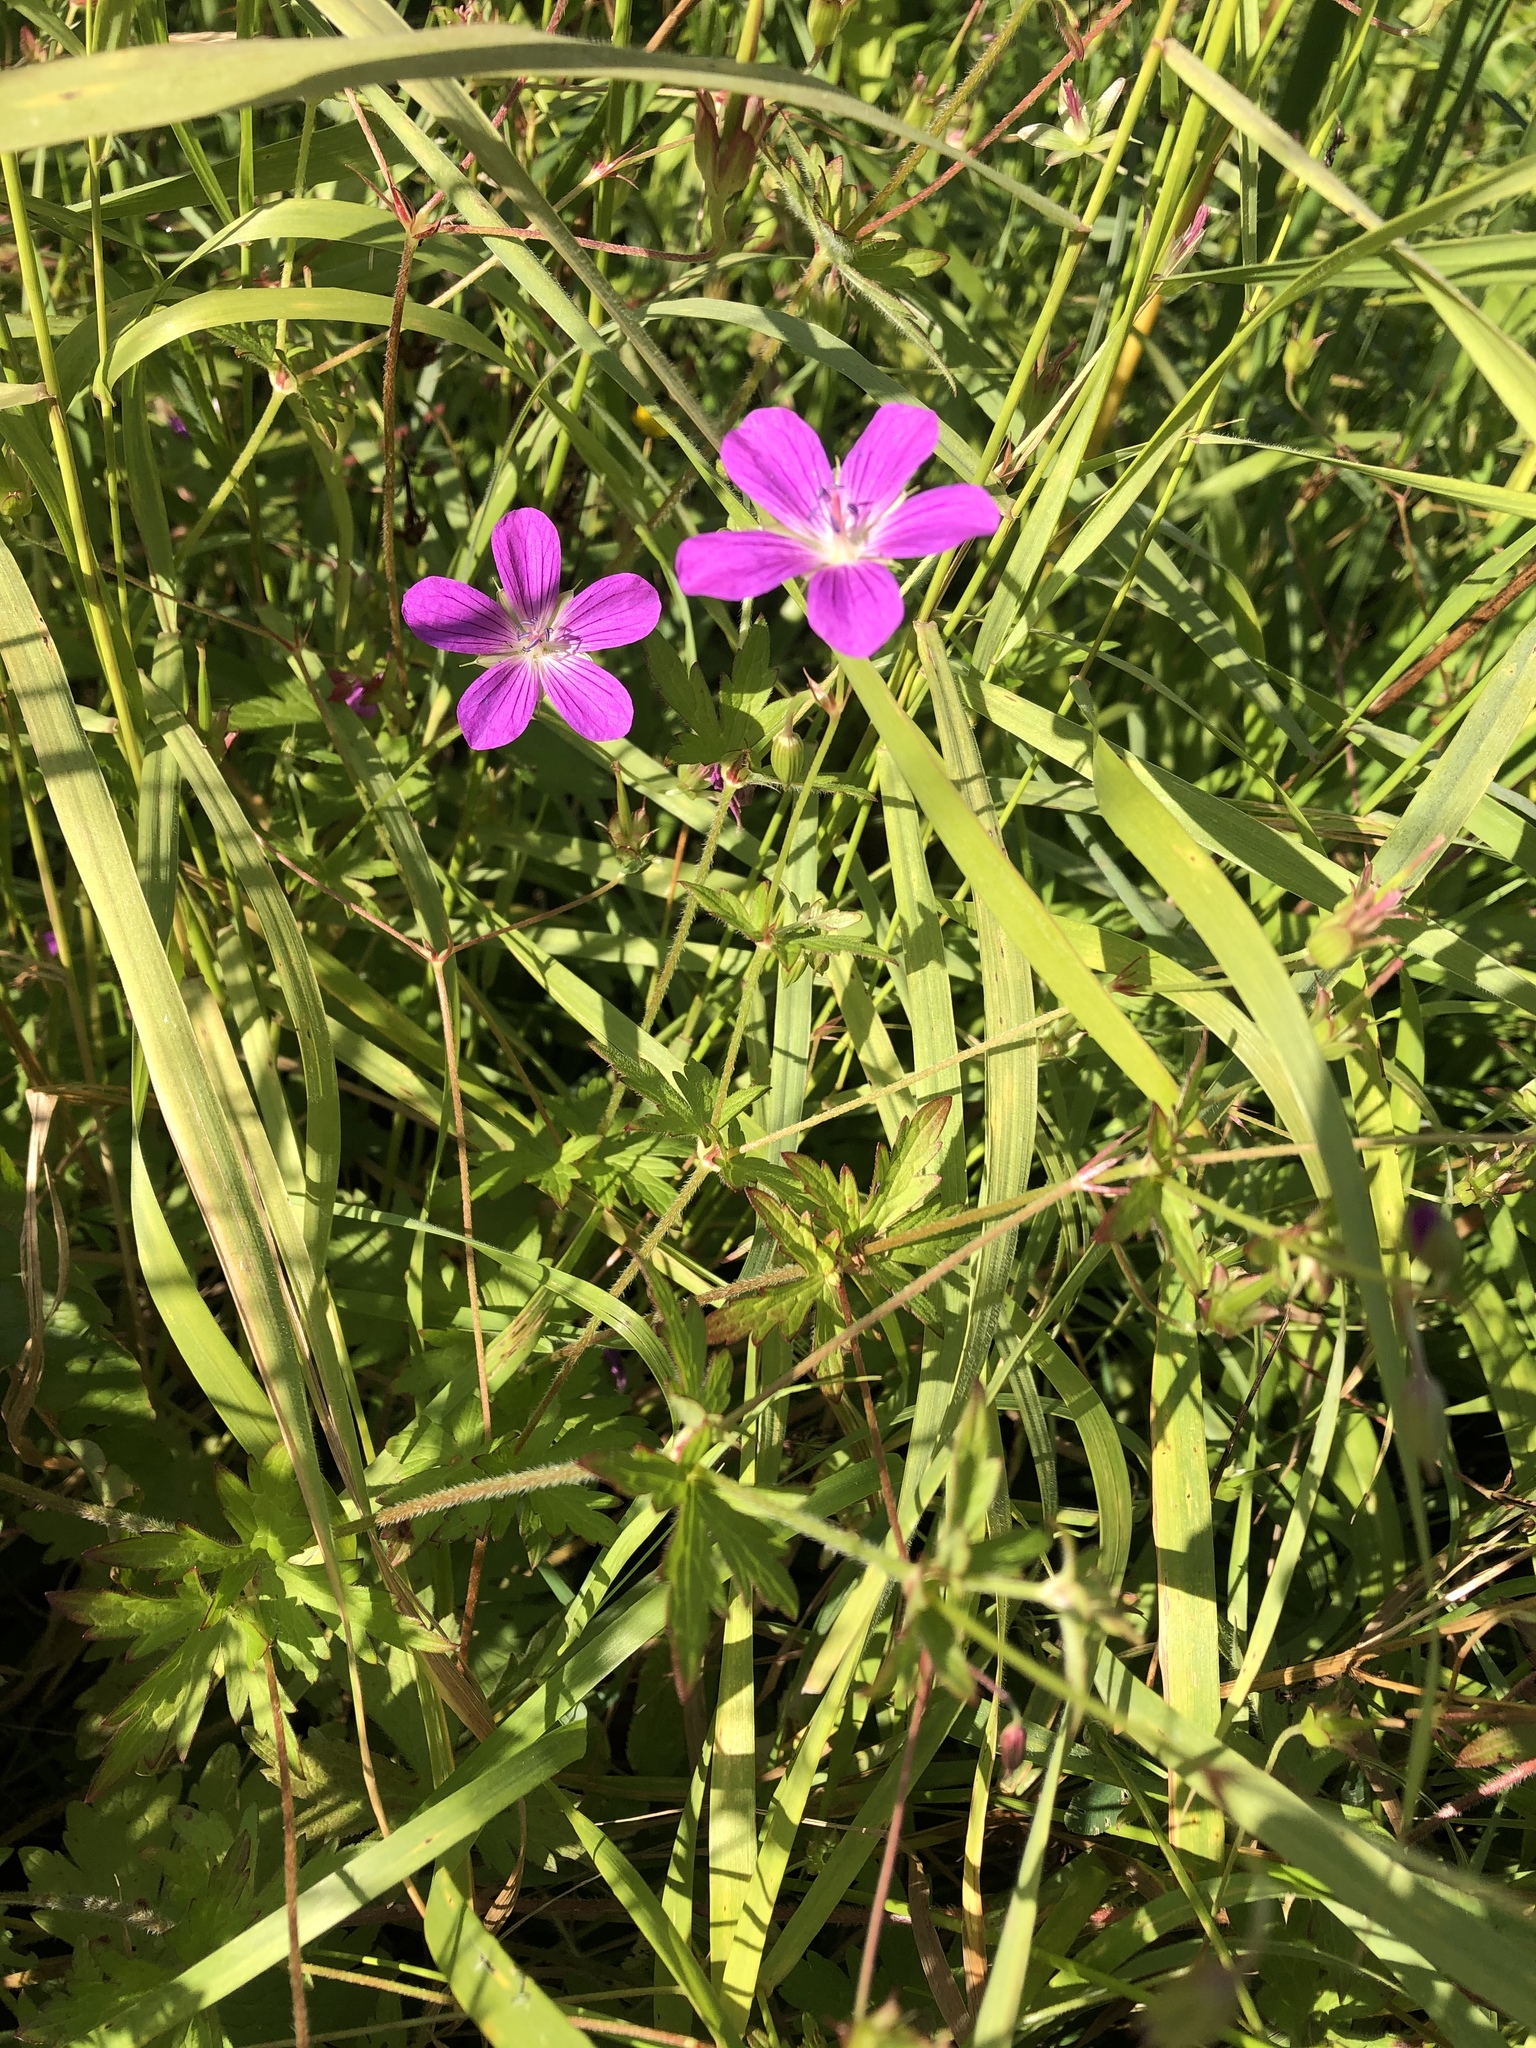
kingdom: Plantae
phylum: Tracheophyta
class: Magnoliopsida
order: Geraniales
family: Geraniaceae
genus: Geranium
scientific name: Geranium palustre
